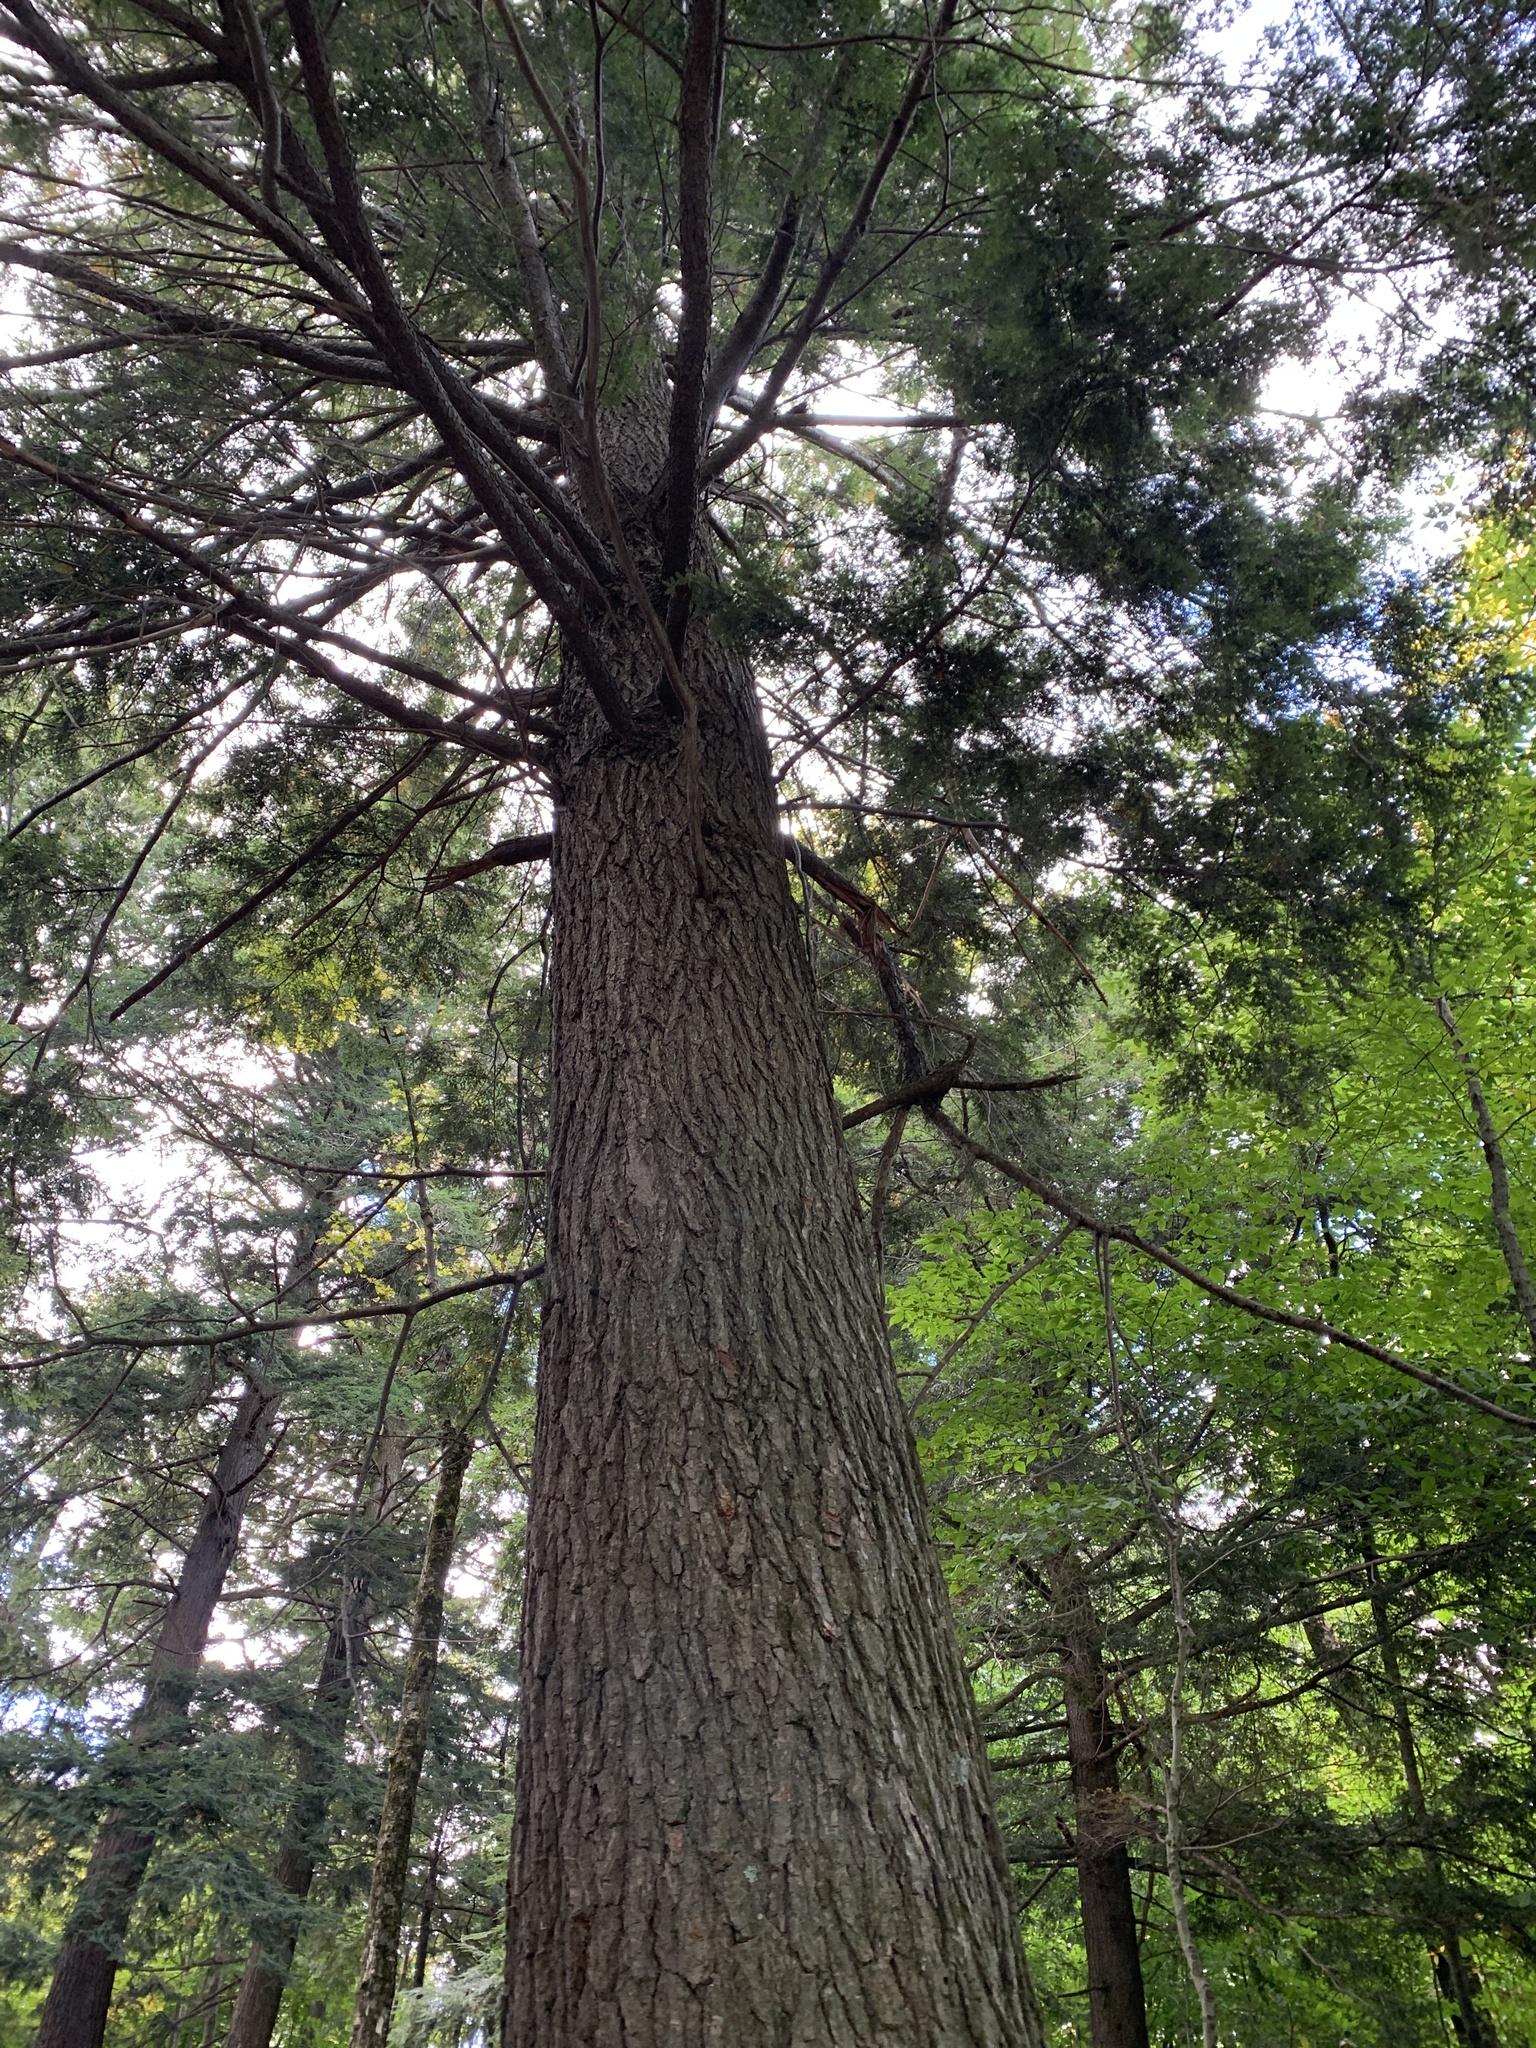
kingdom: Plantae
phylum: Tracheophyta
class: Pinopsida
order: Pinales
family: Pinaceae
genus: Tsuga
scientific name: Tsuga canadensis
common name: Eastern hemlock
